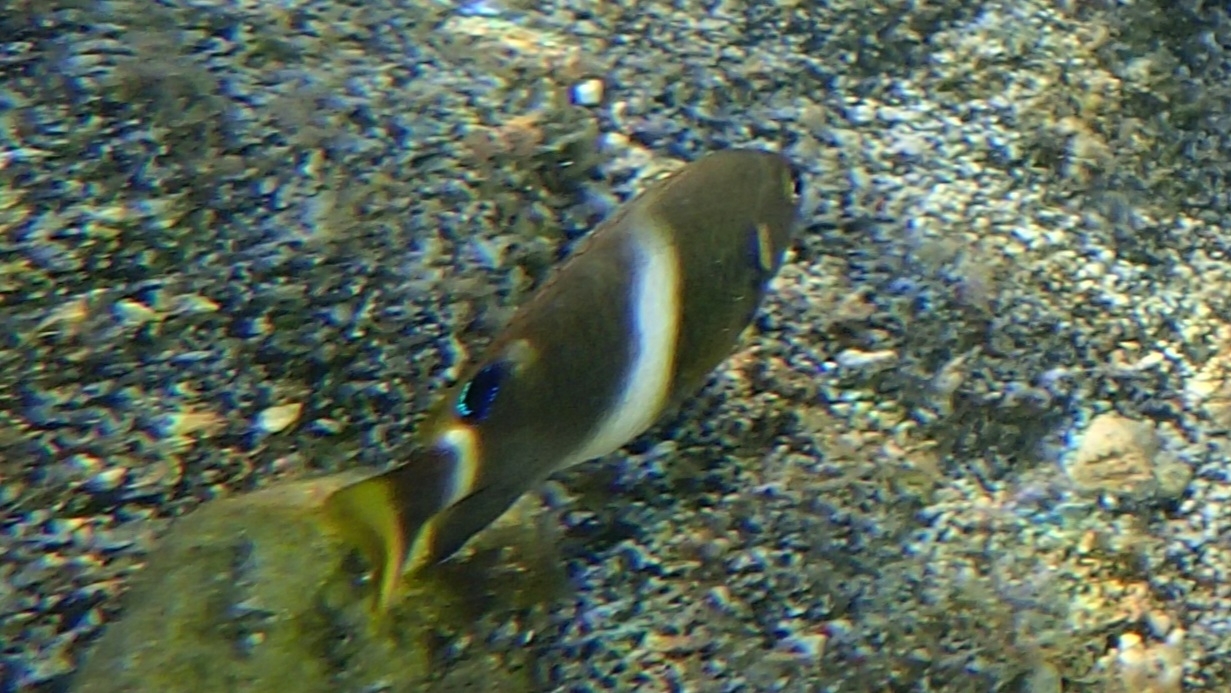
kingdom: Animalia
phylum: Chordata
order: Perciformes
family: Pomacentridae
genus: Chrysiptera
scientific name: Chrysiptera brownriggii
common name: Surge demoiselle
